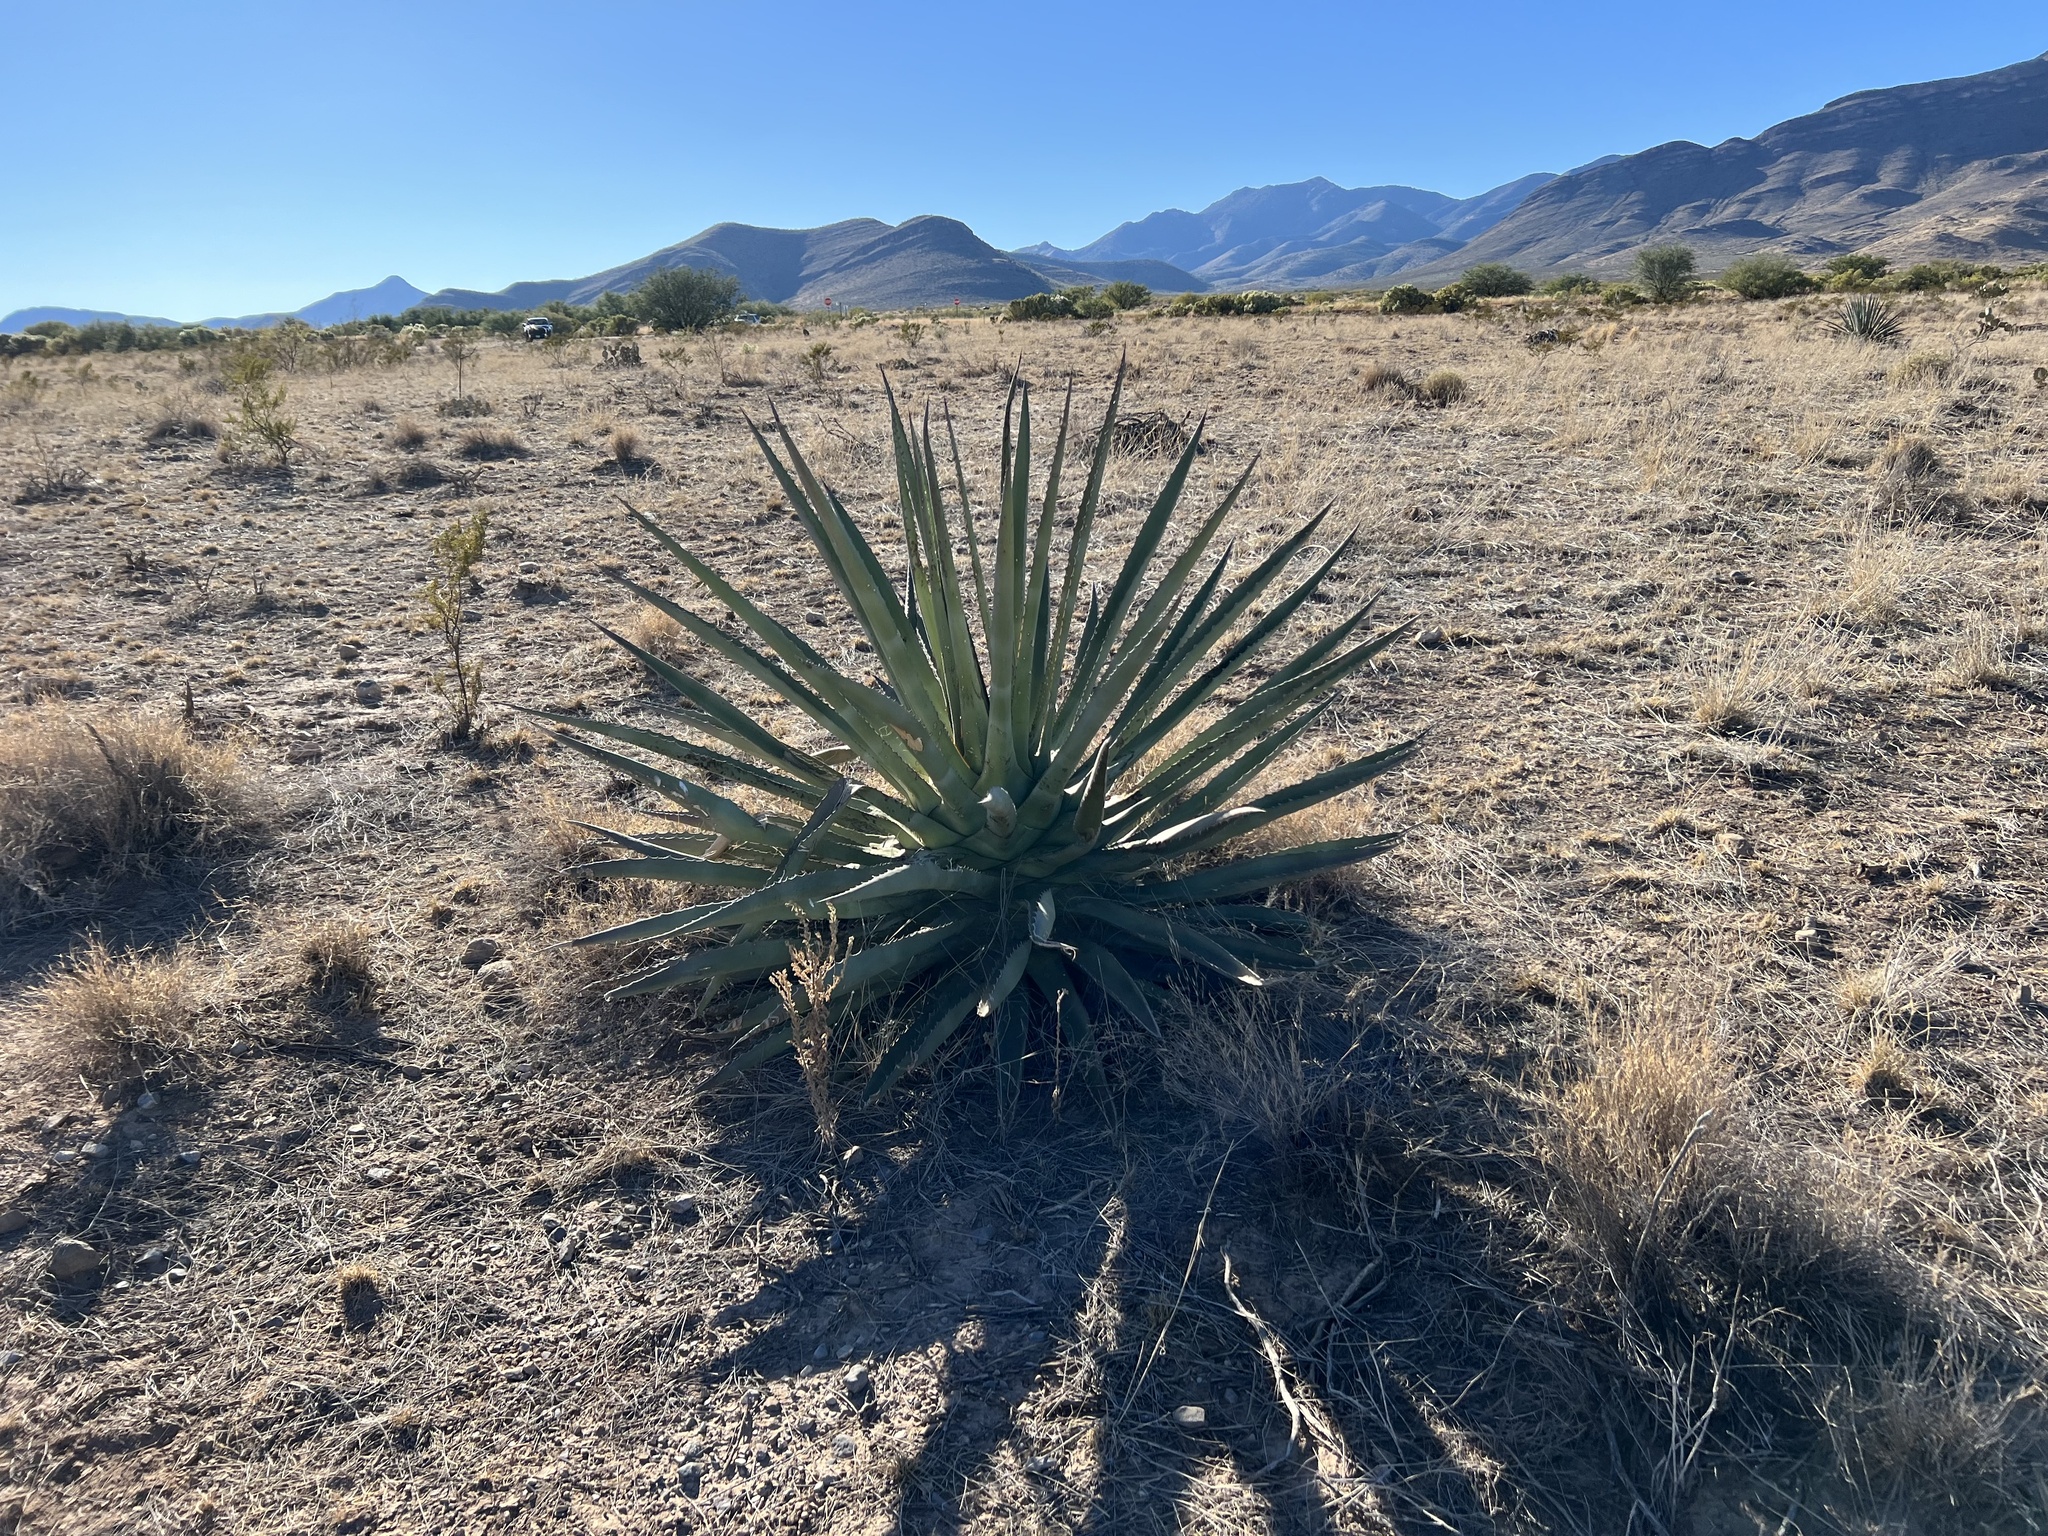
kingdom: Plantae
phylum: Tracheophyta
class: Liliopsida
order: Asparagales
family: Asparagaceae
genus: Agave
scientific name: Agave palmeri
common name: Palmer agave
